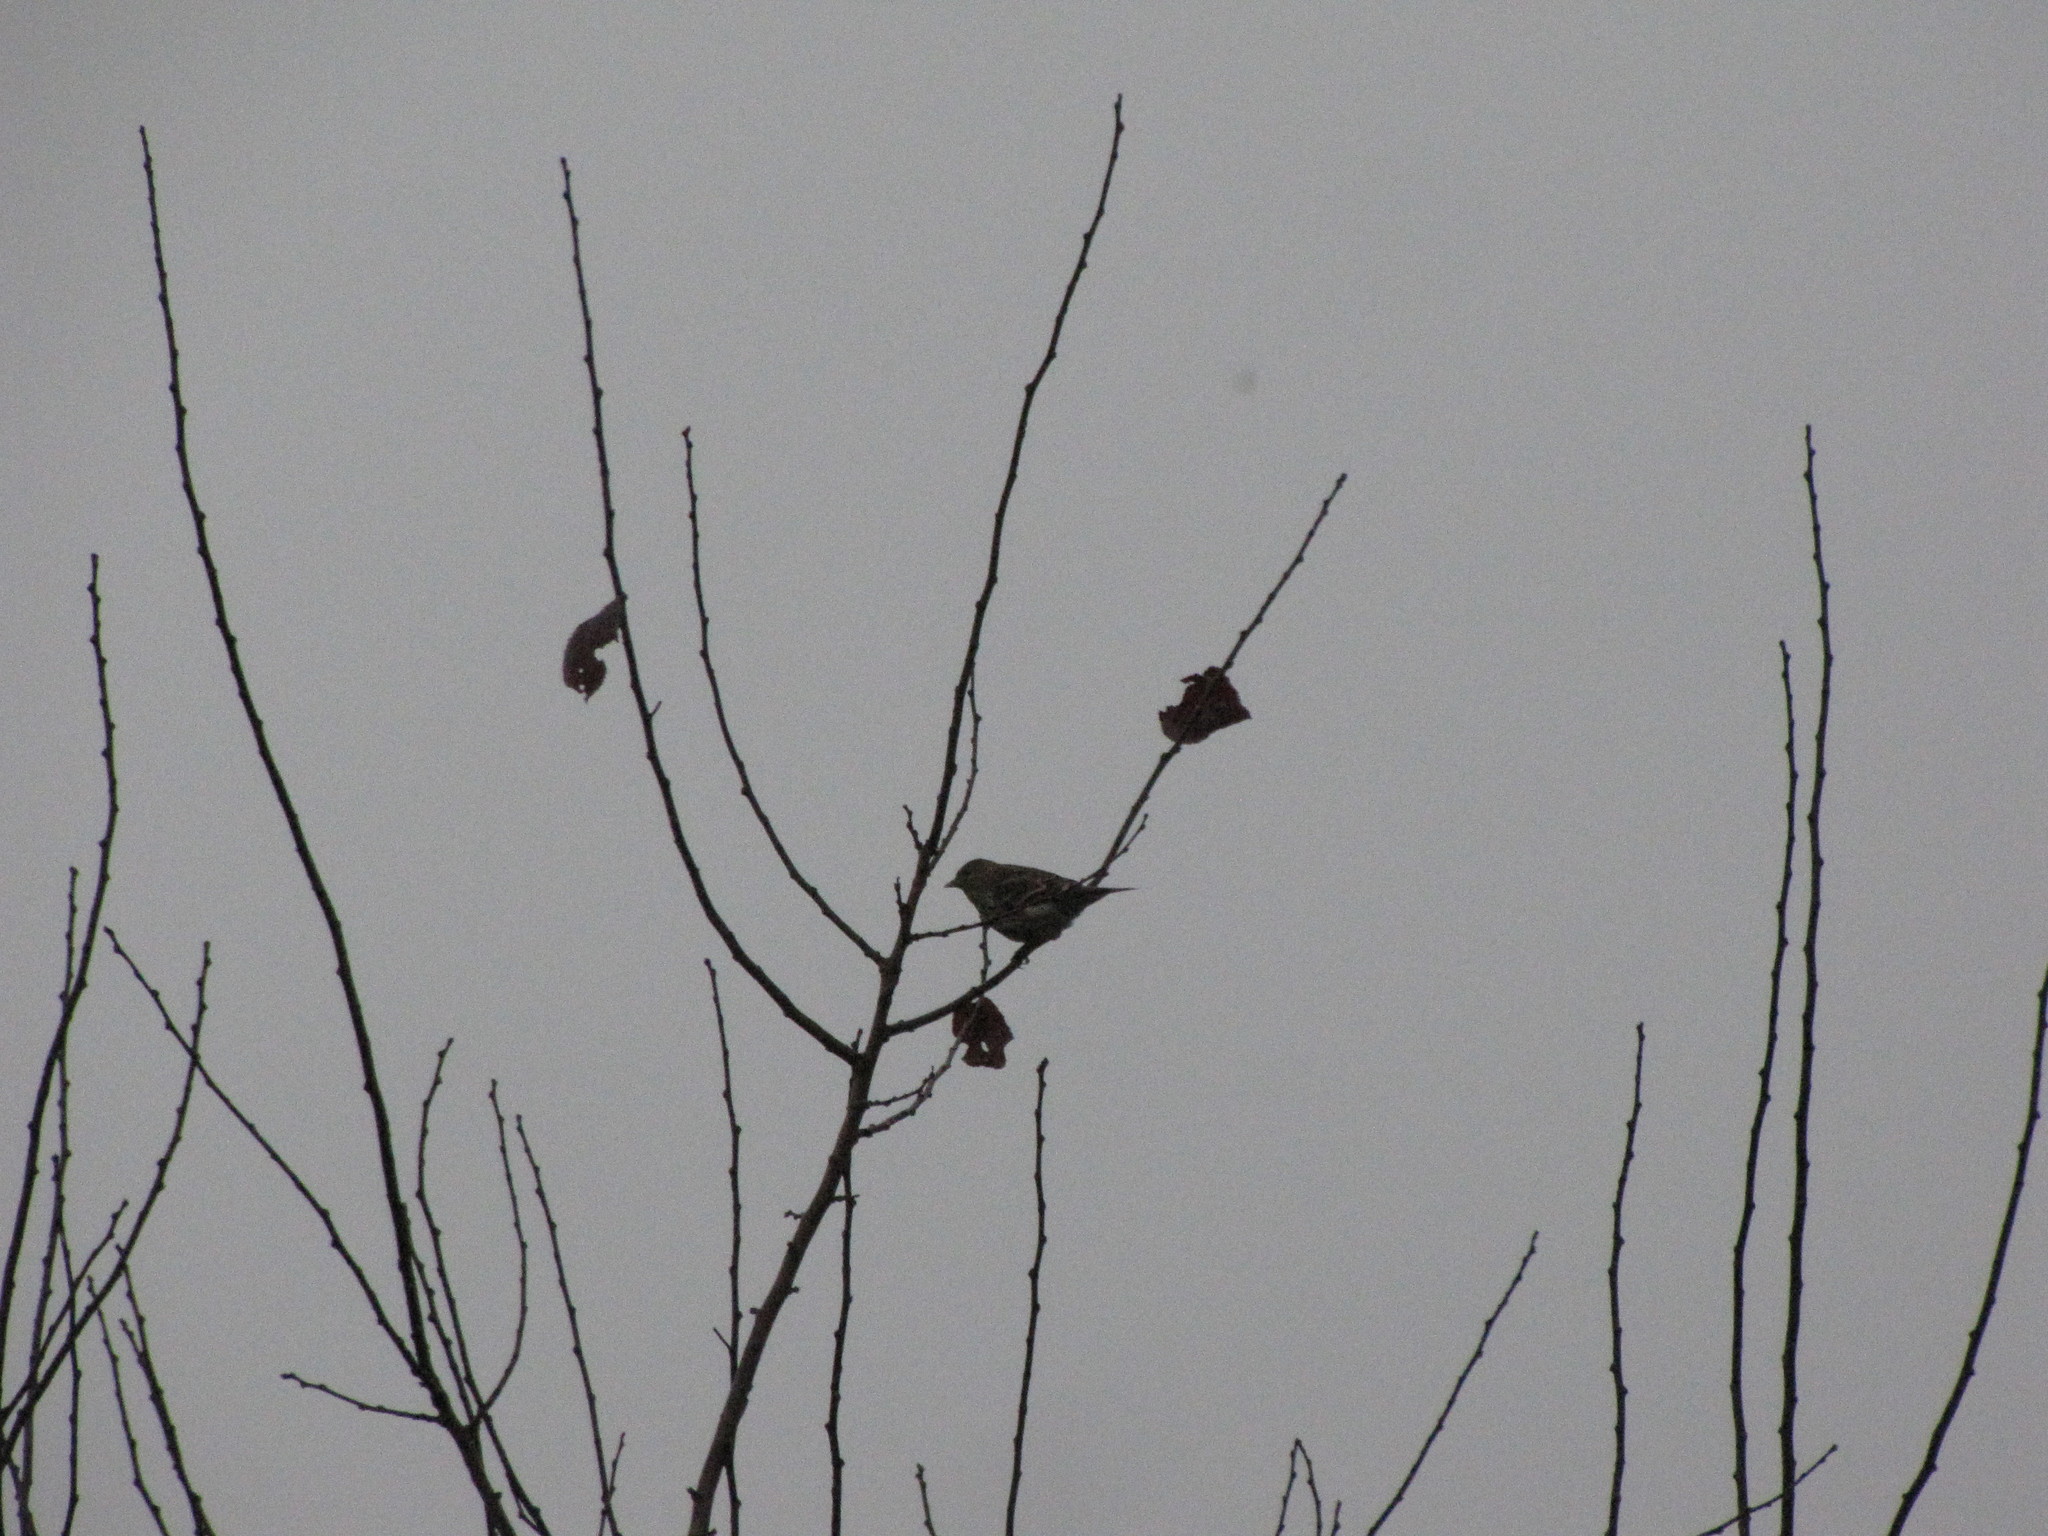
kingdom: Animalia
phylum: Chordata
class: Aves
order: Passeriformes
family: Fringillidae
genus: Spinus
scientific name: Spinus pinus
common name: Pine siskin
